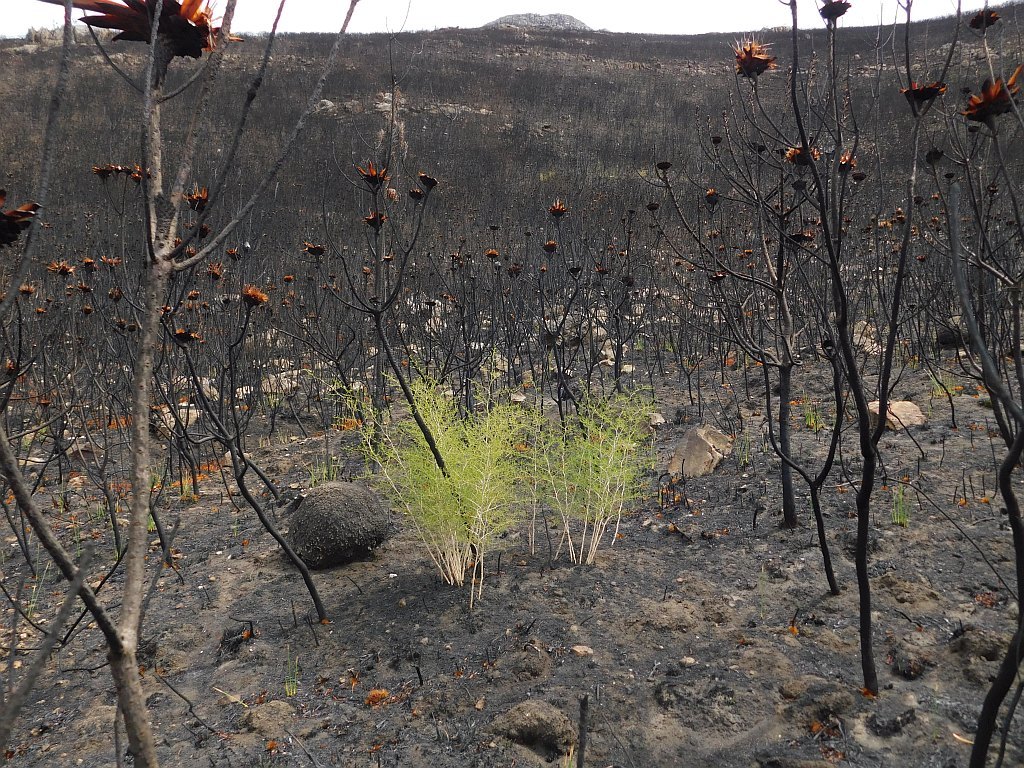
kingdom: Plantae
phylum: Tracheophyta
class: Liliopsida
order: Asparagales
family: Asparagaceae
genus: Asparagus
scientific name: Asparagus lignosus
